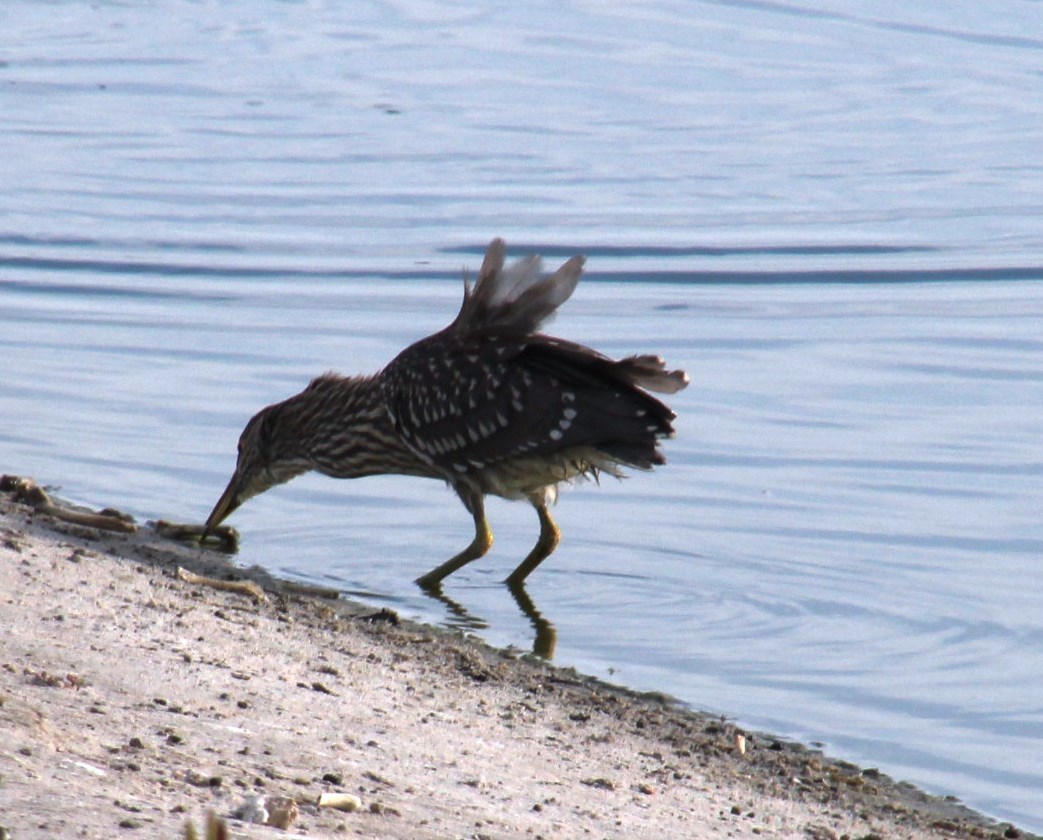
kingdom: Animalia
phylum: Chordata
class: Aves
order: Pelecaniformes
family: Ardeidae
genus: Nycticorax
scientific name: Nycticorax nycticorax
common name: Black-crowned night heron
